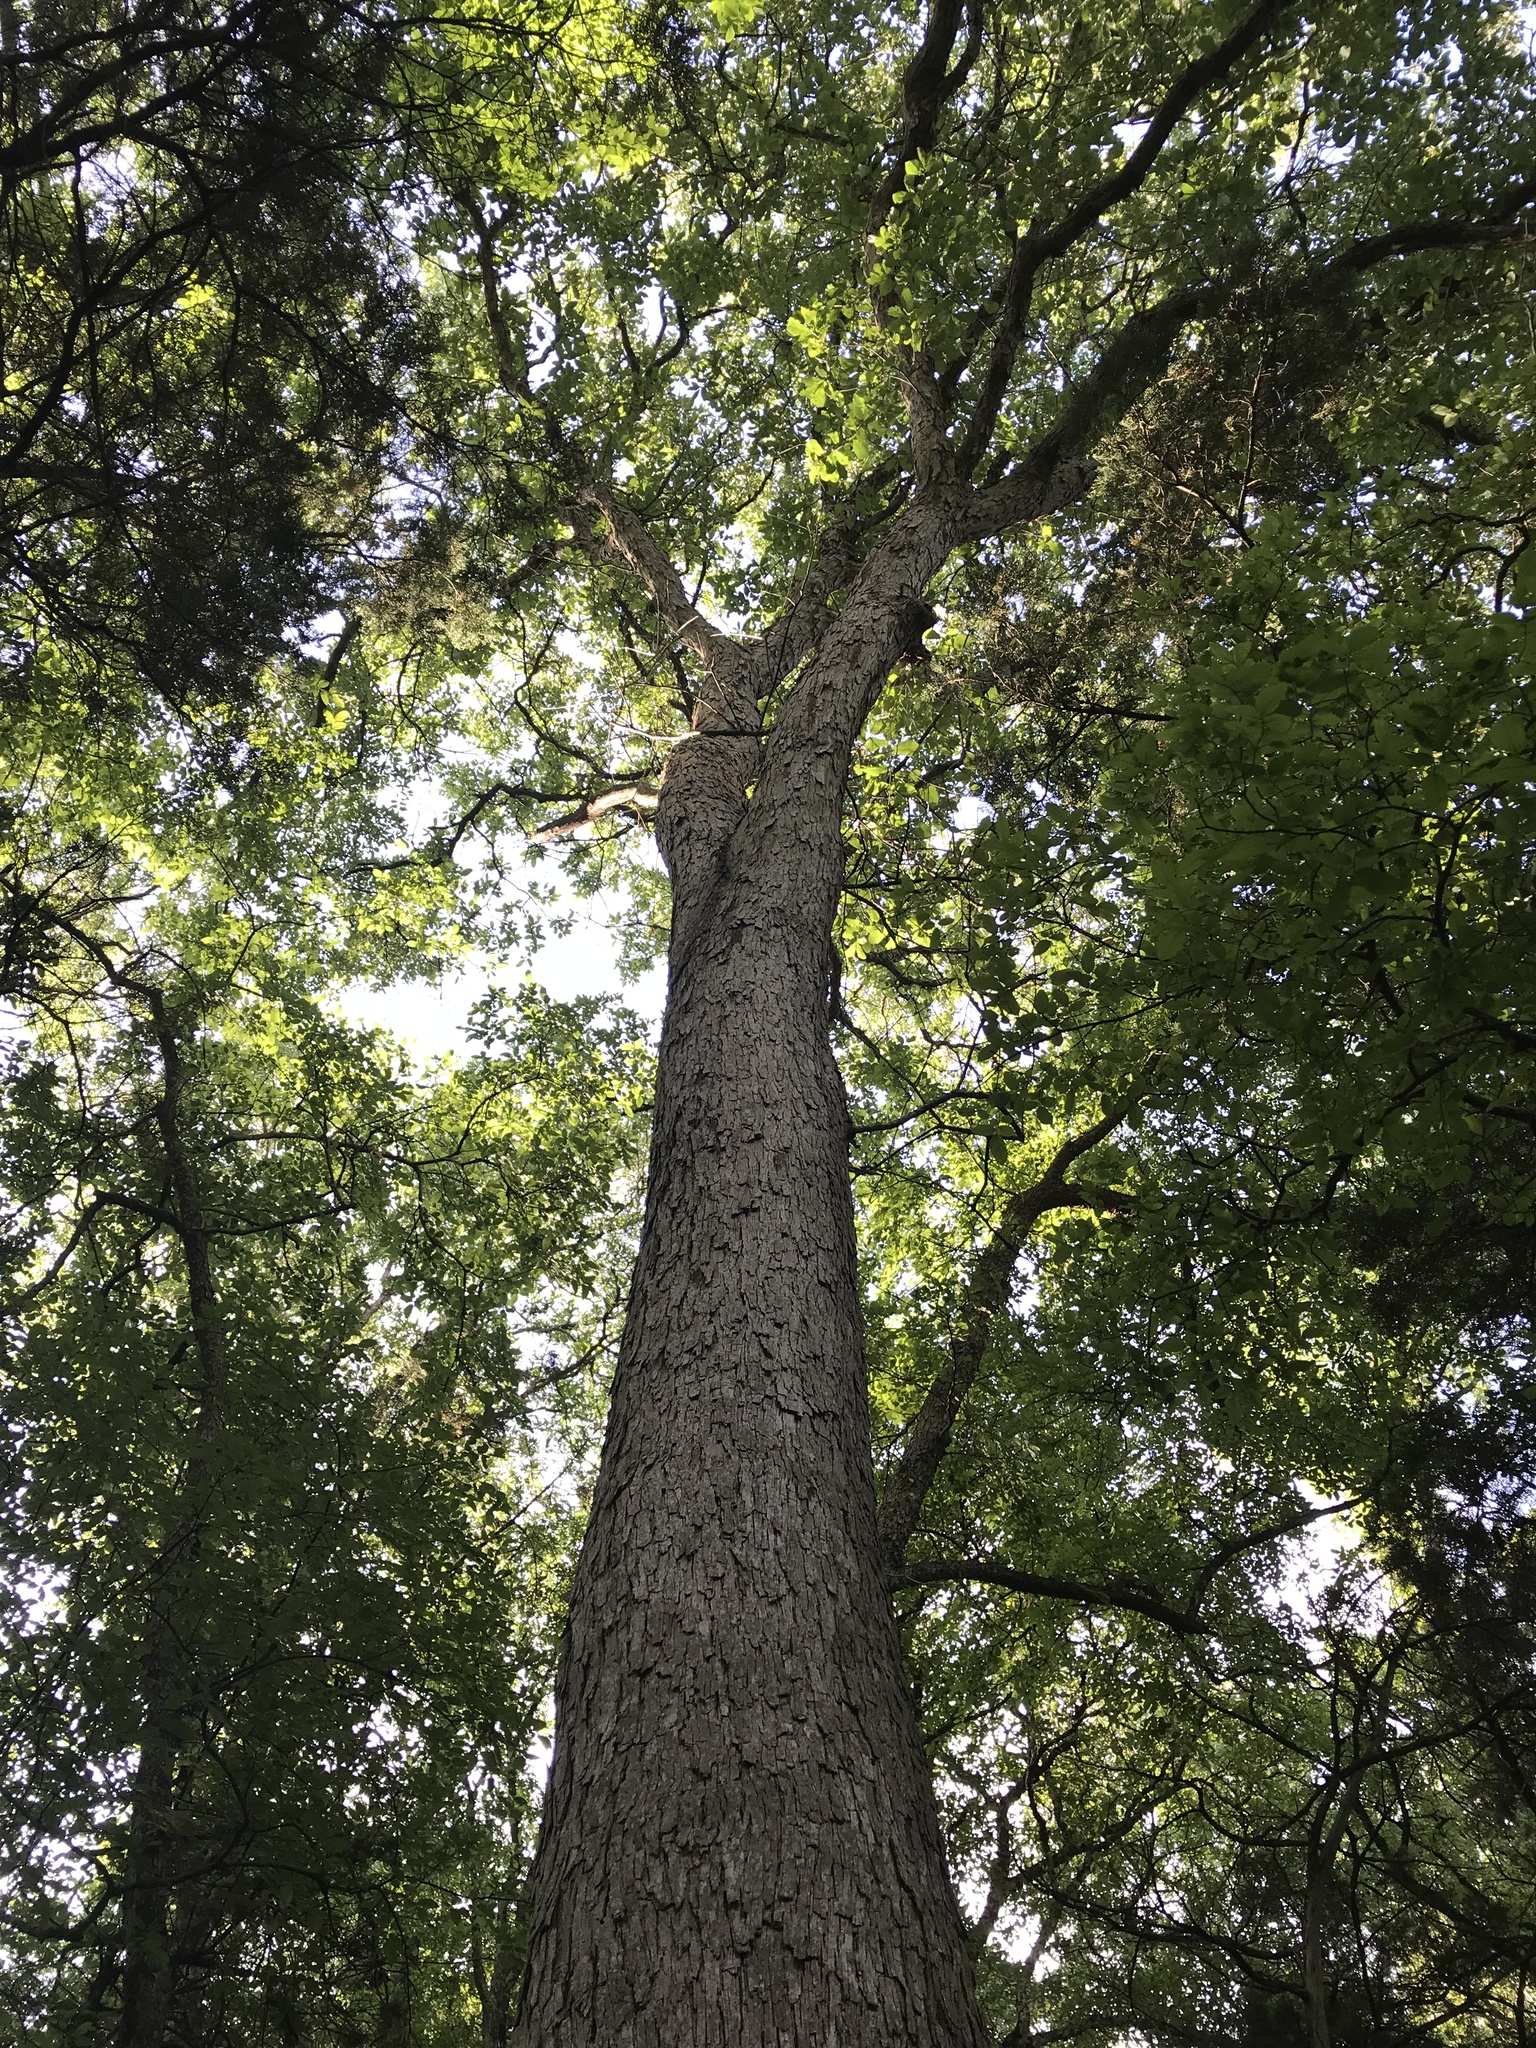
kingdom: Plantae
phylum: Tracheophyta
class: Magnoliopsida
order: Fagales
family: Fagaceae
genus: Quercus
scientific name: Quercus sinuata
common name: Durand oak
